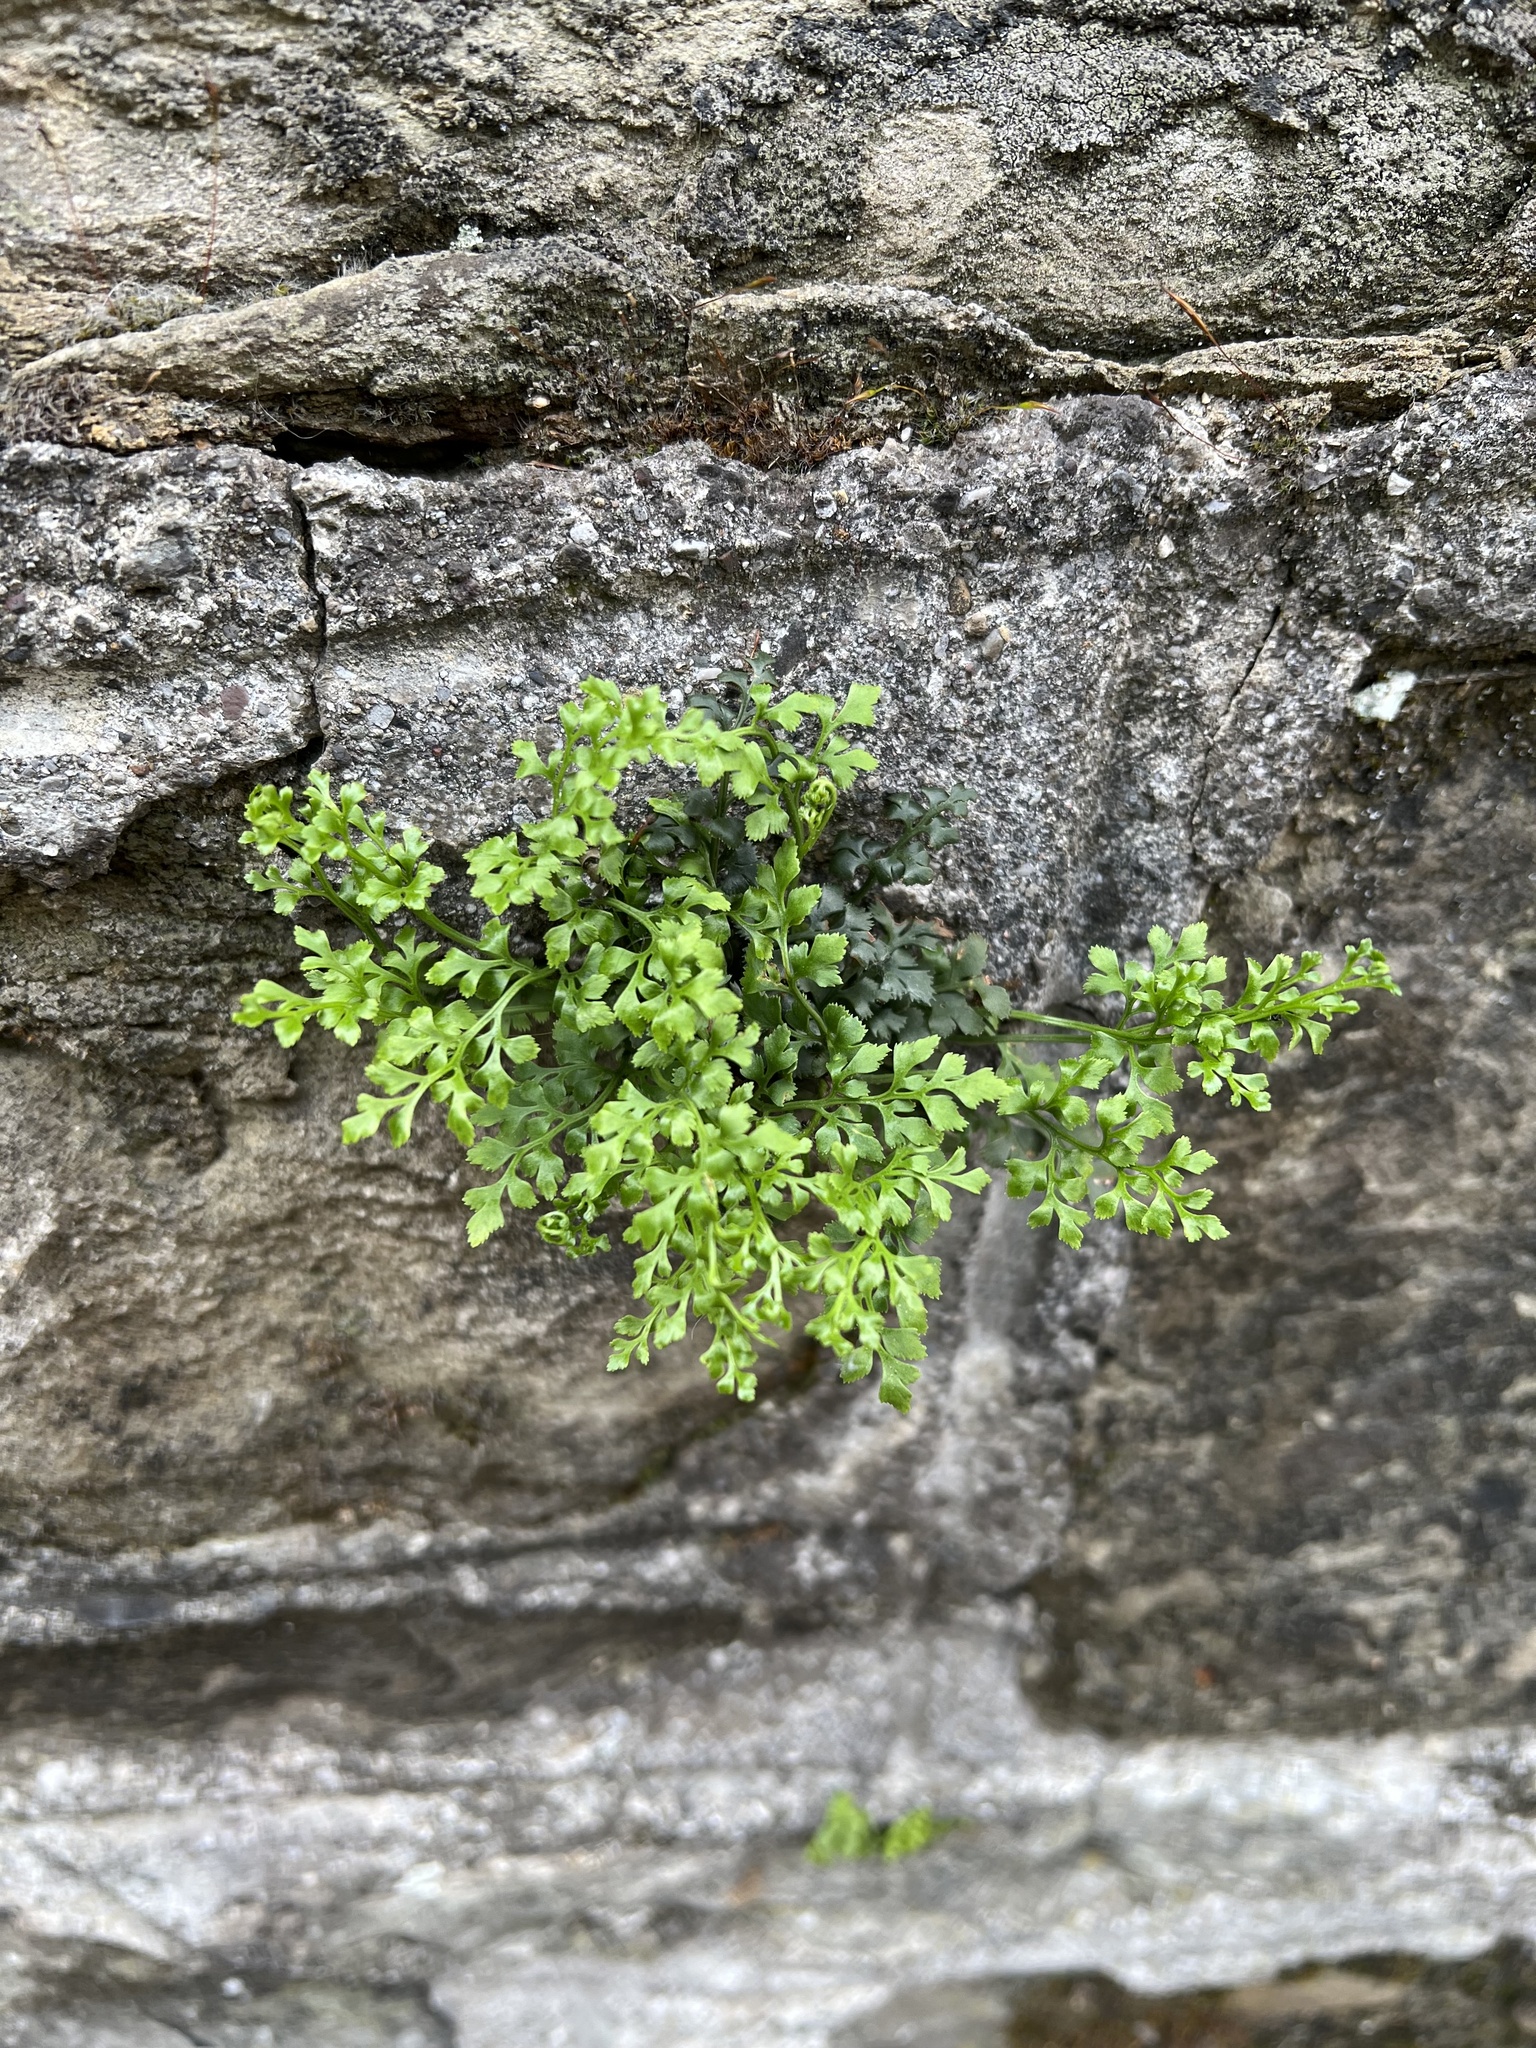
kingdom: Plantae
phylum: Tracheophyta
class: Polypodiopsida
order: Polypodiales
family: Aspleniaceae
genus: Asplenium
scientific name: Asplenium ruta-muraria
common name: Wall-rue
